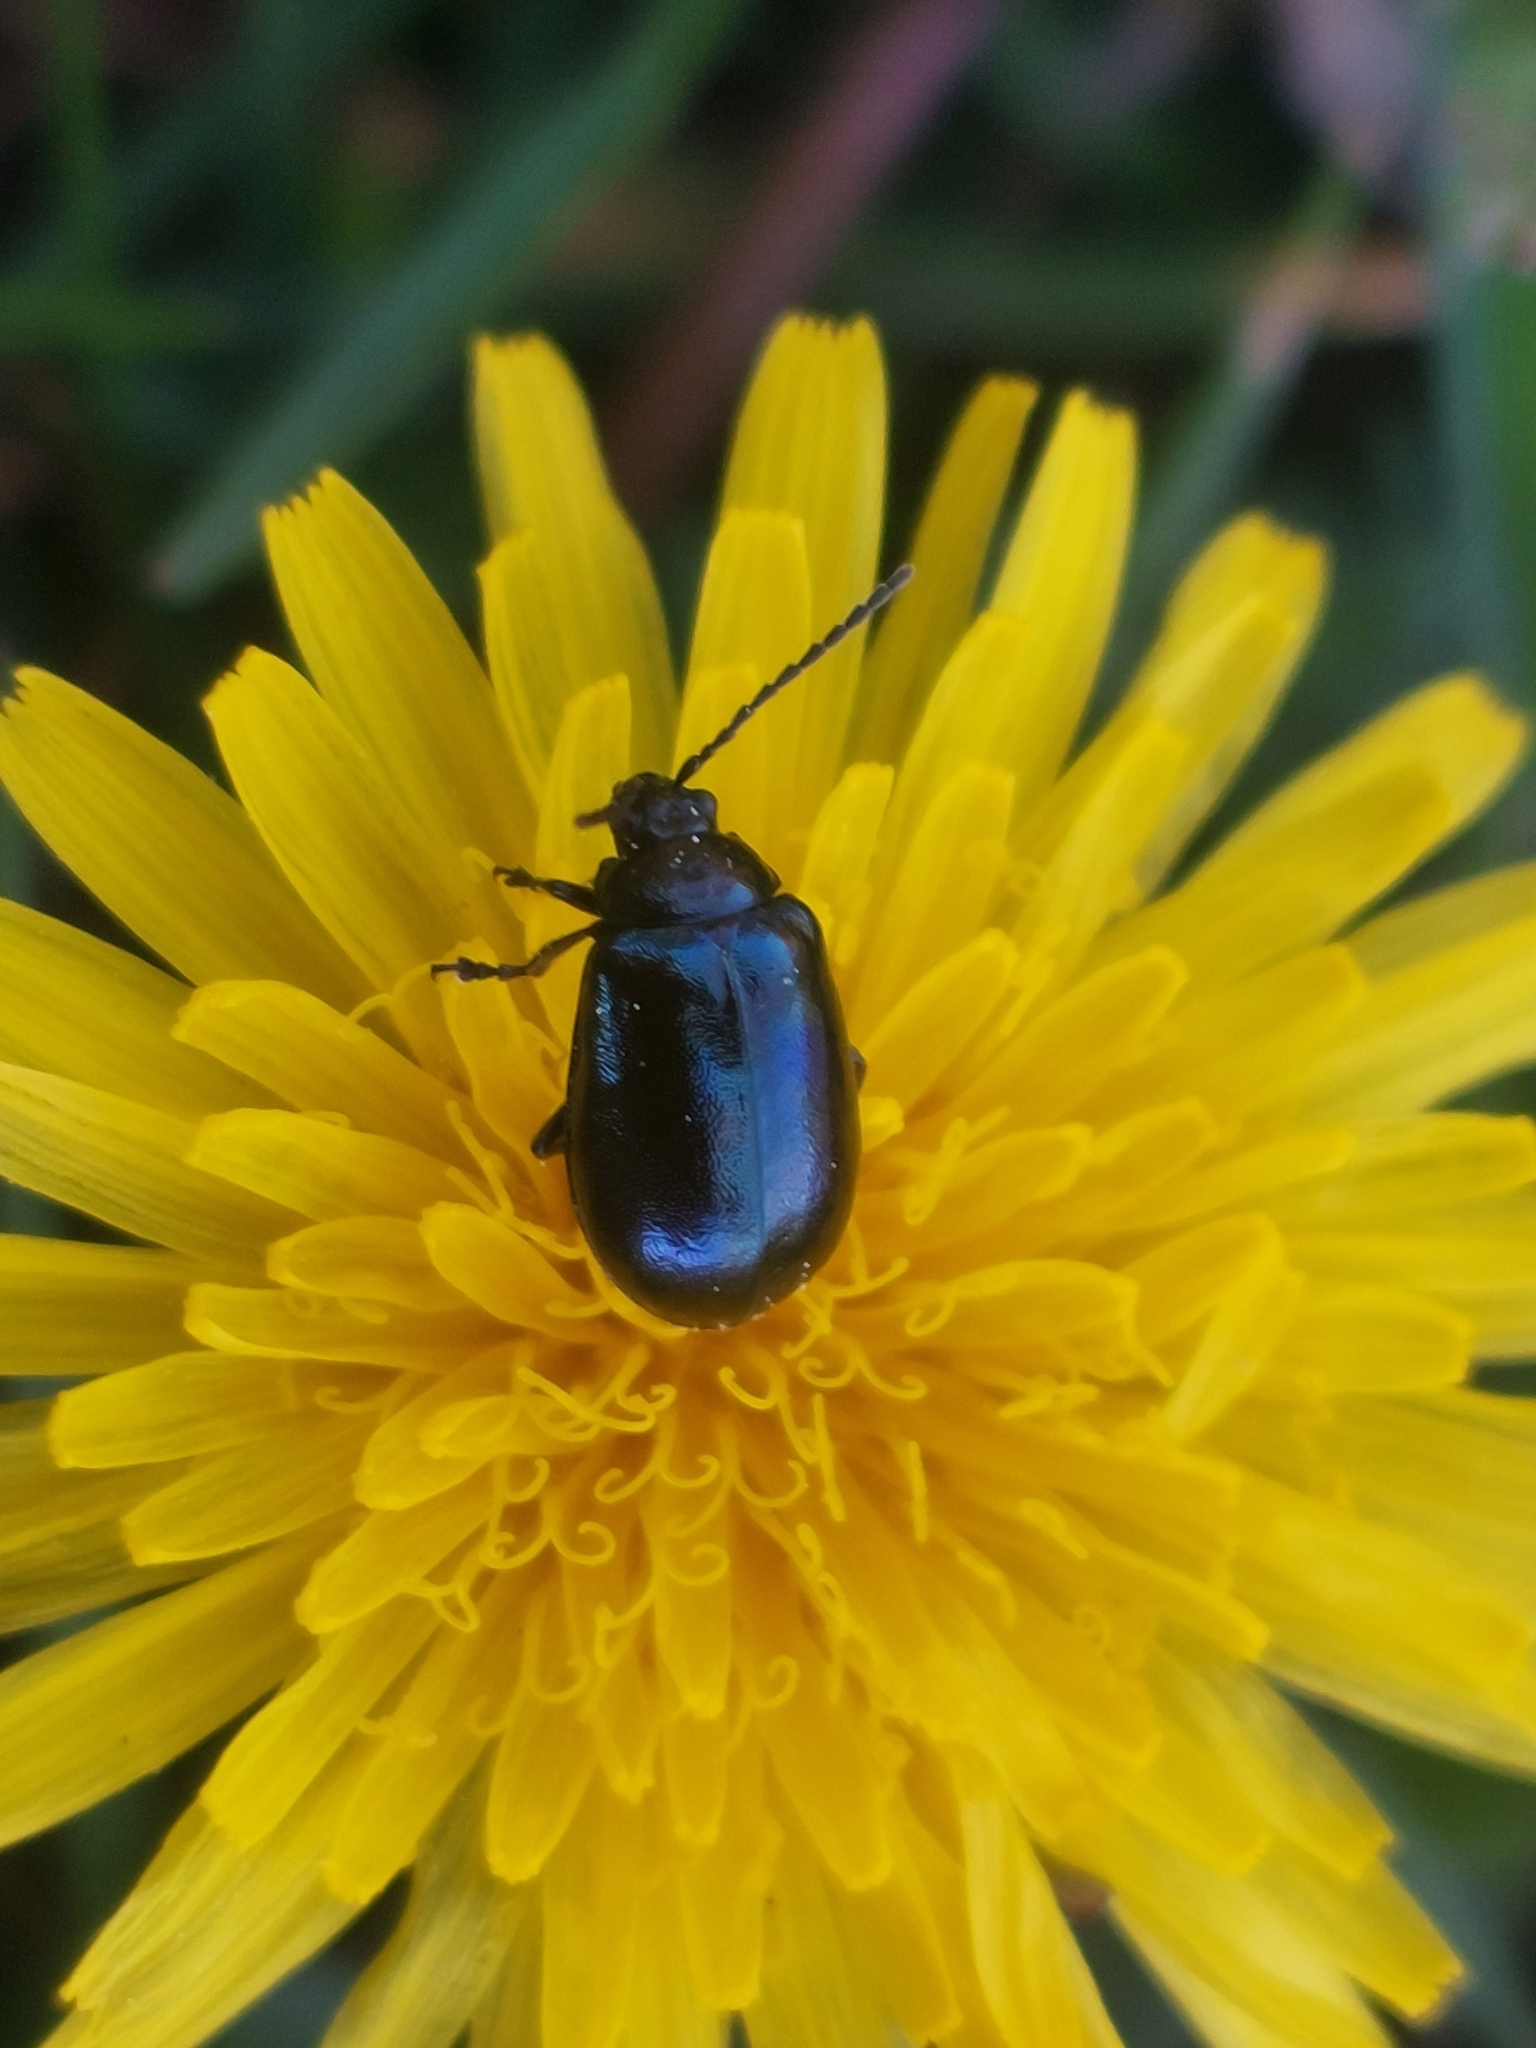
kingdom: Animalia
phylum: Arthropoda
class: Insecta
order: Coleoptera
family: Chrysomelidae
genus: Agelastica
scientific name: Agelastica alni
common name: Alder leaf beetle
